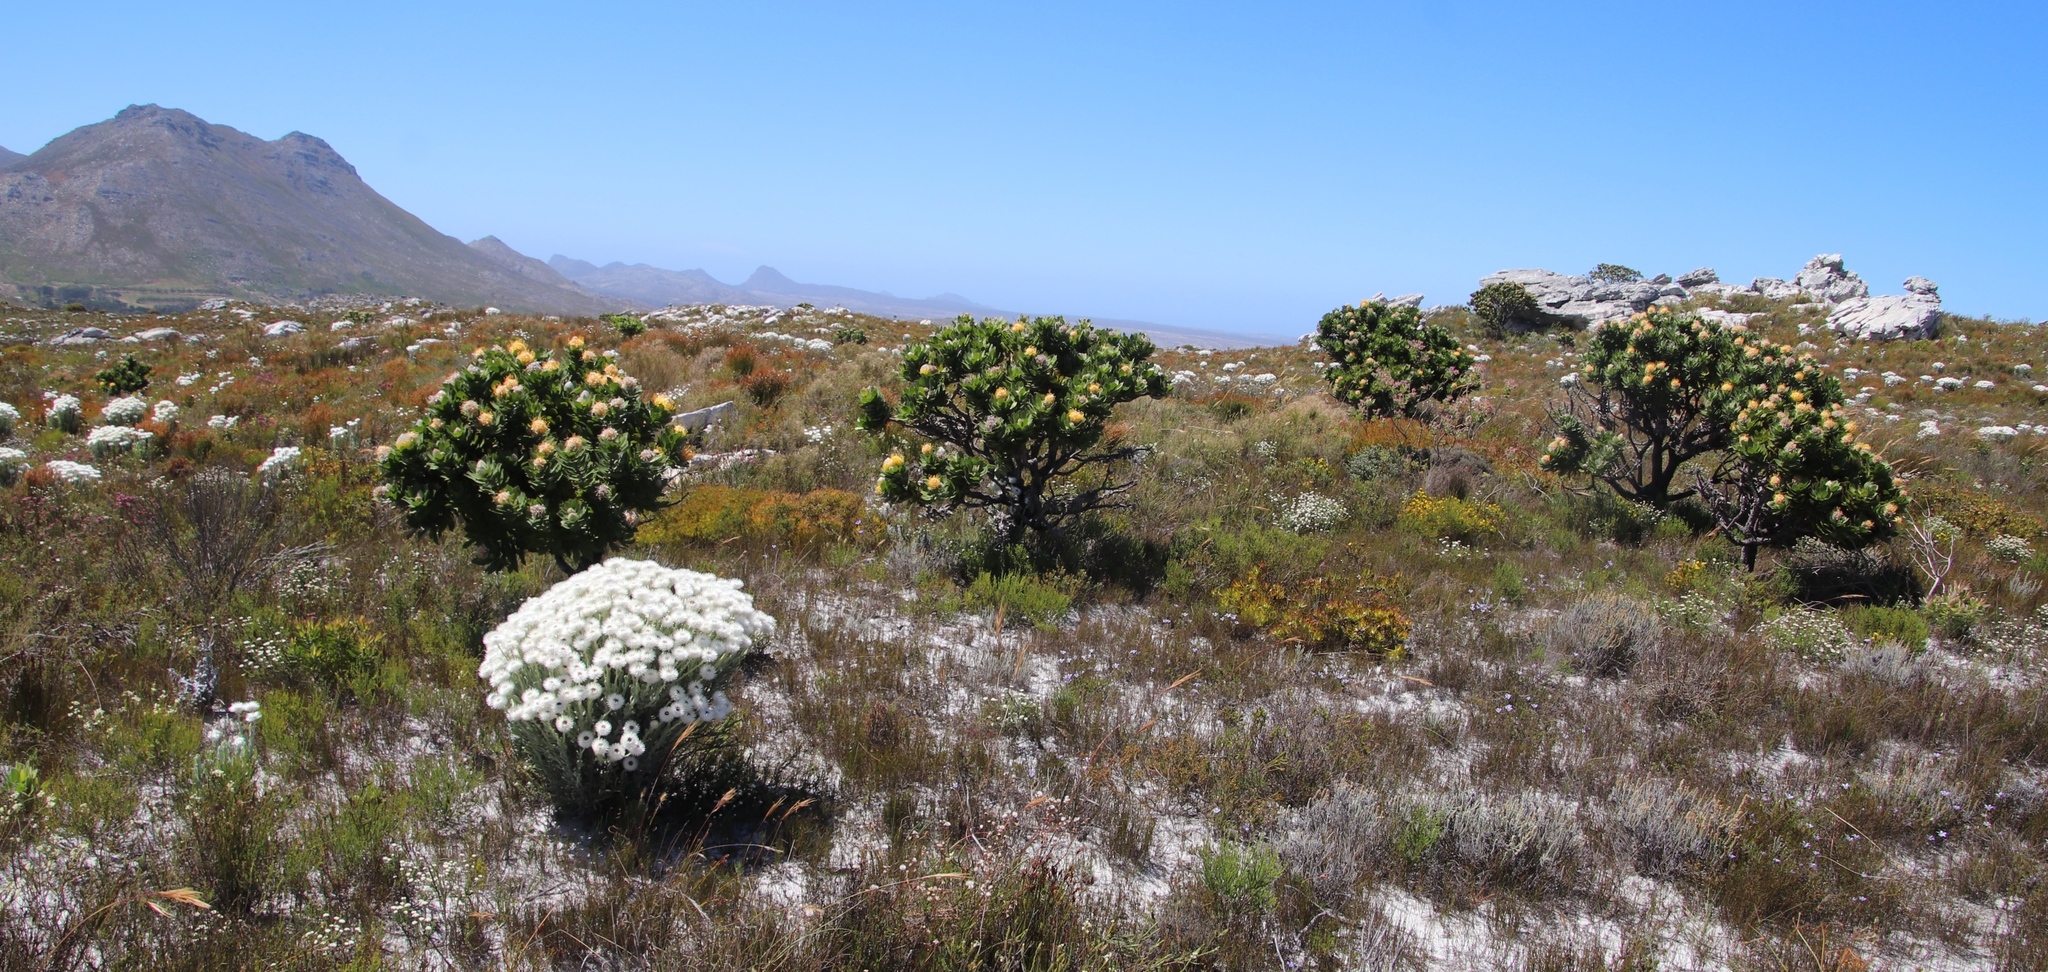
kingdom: Plantae
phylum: Tracheophyta
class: Magnoliopsida
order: Proteales
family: Proteaceae
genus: Leucospermum
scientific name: Leucospermum conocarpodendron
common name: Tree pincushion
